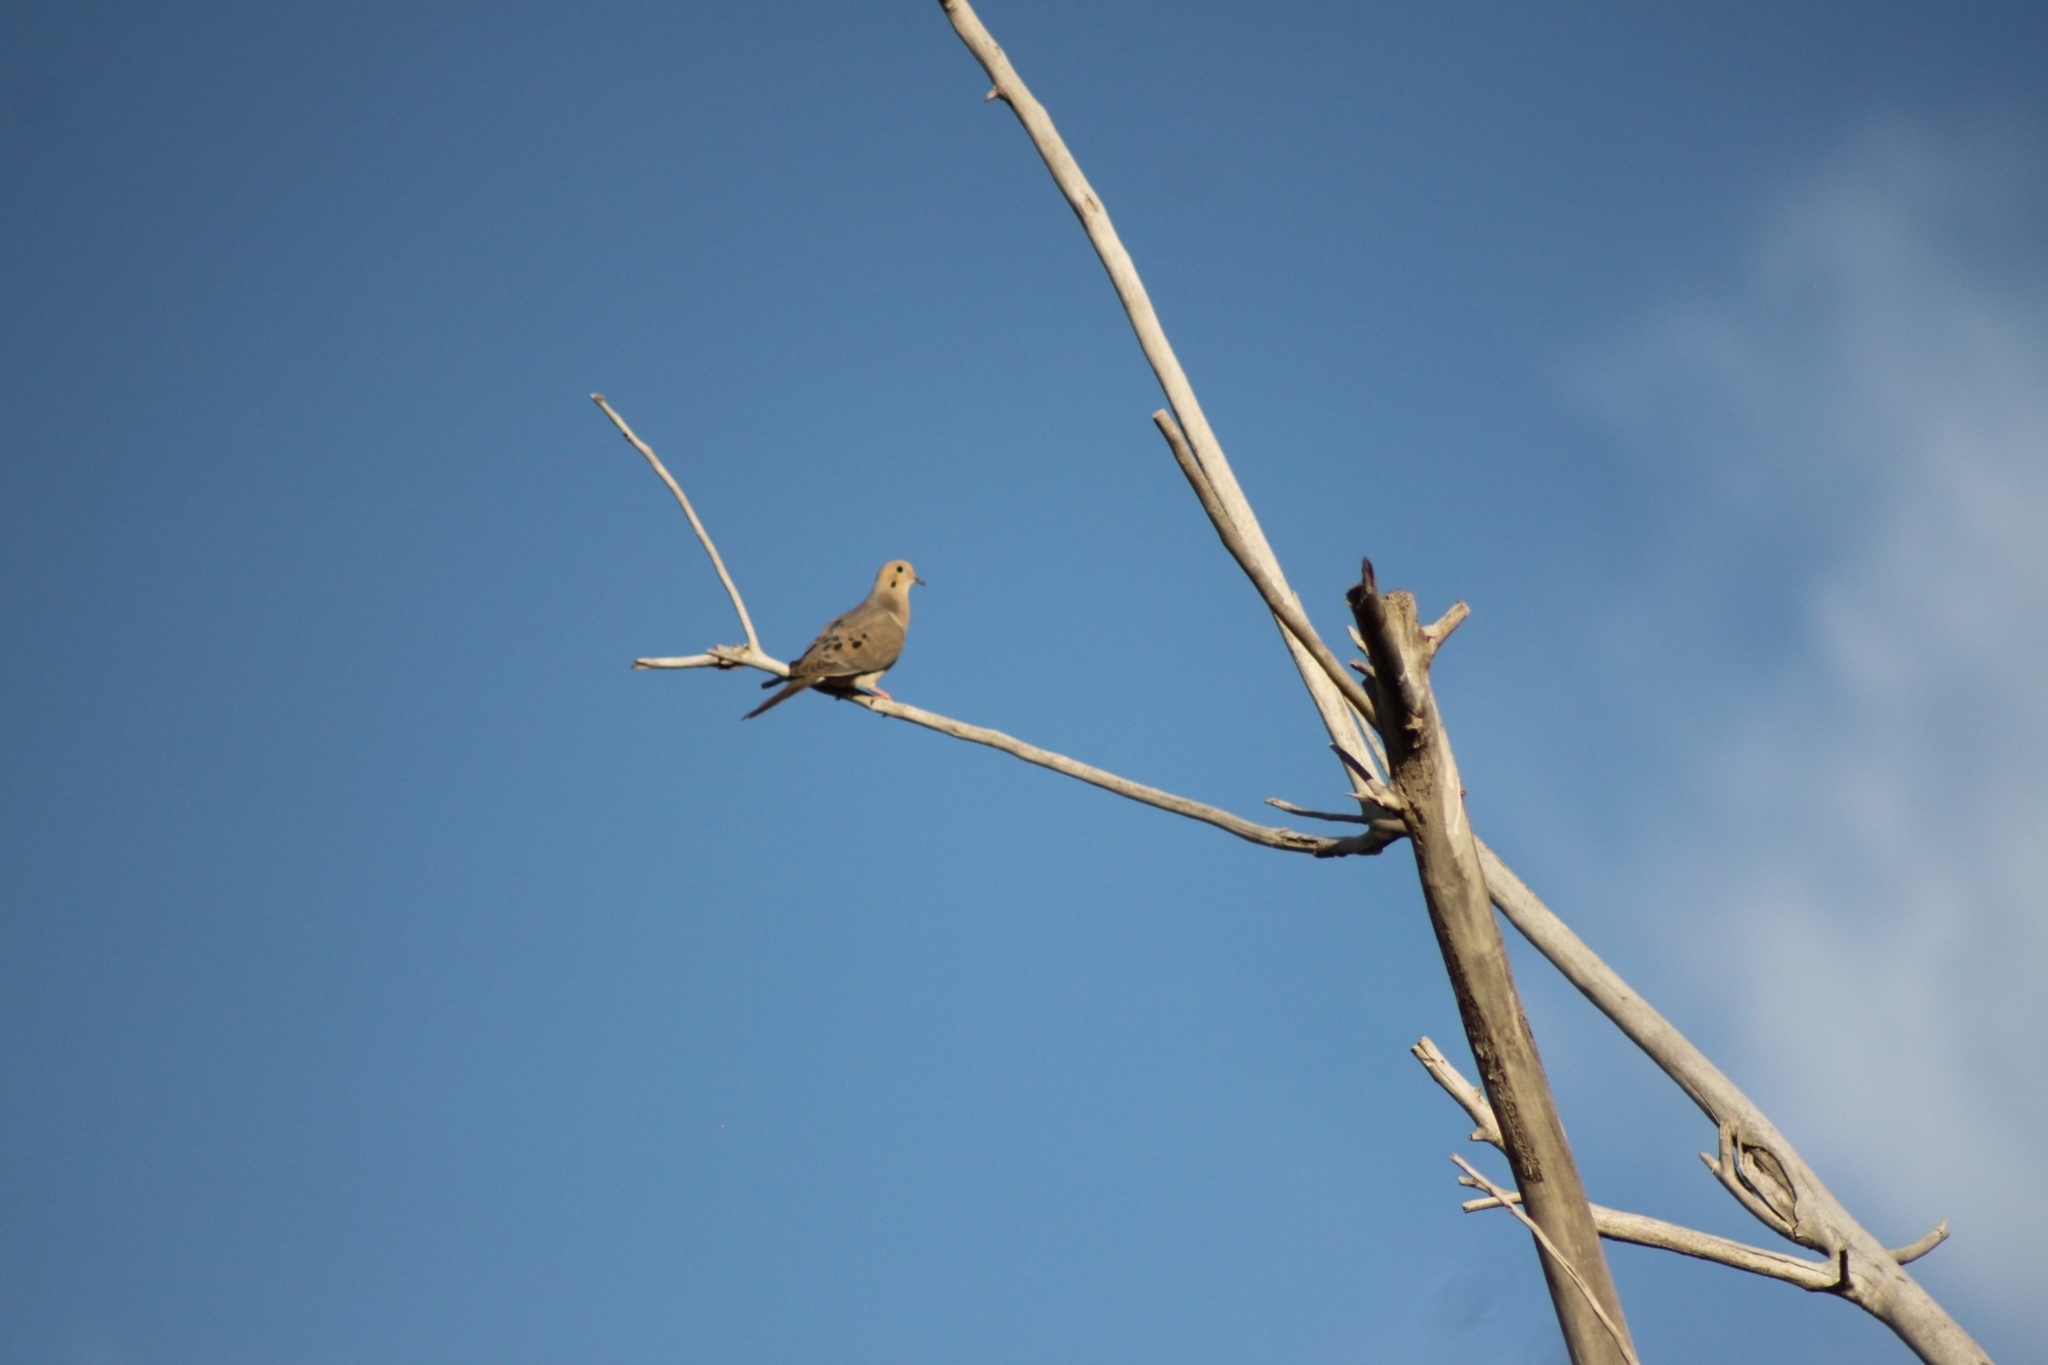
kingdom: Animalia
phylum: Chordata
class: Aves
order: Columbiformes
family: Columbidae
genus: Zenaida
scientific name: Zenaida macroura
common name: Mourning dove
